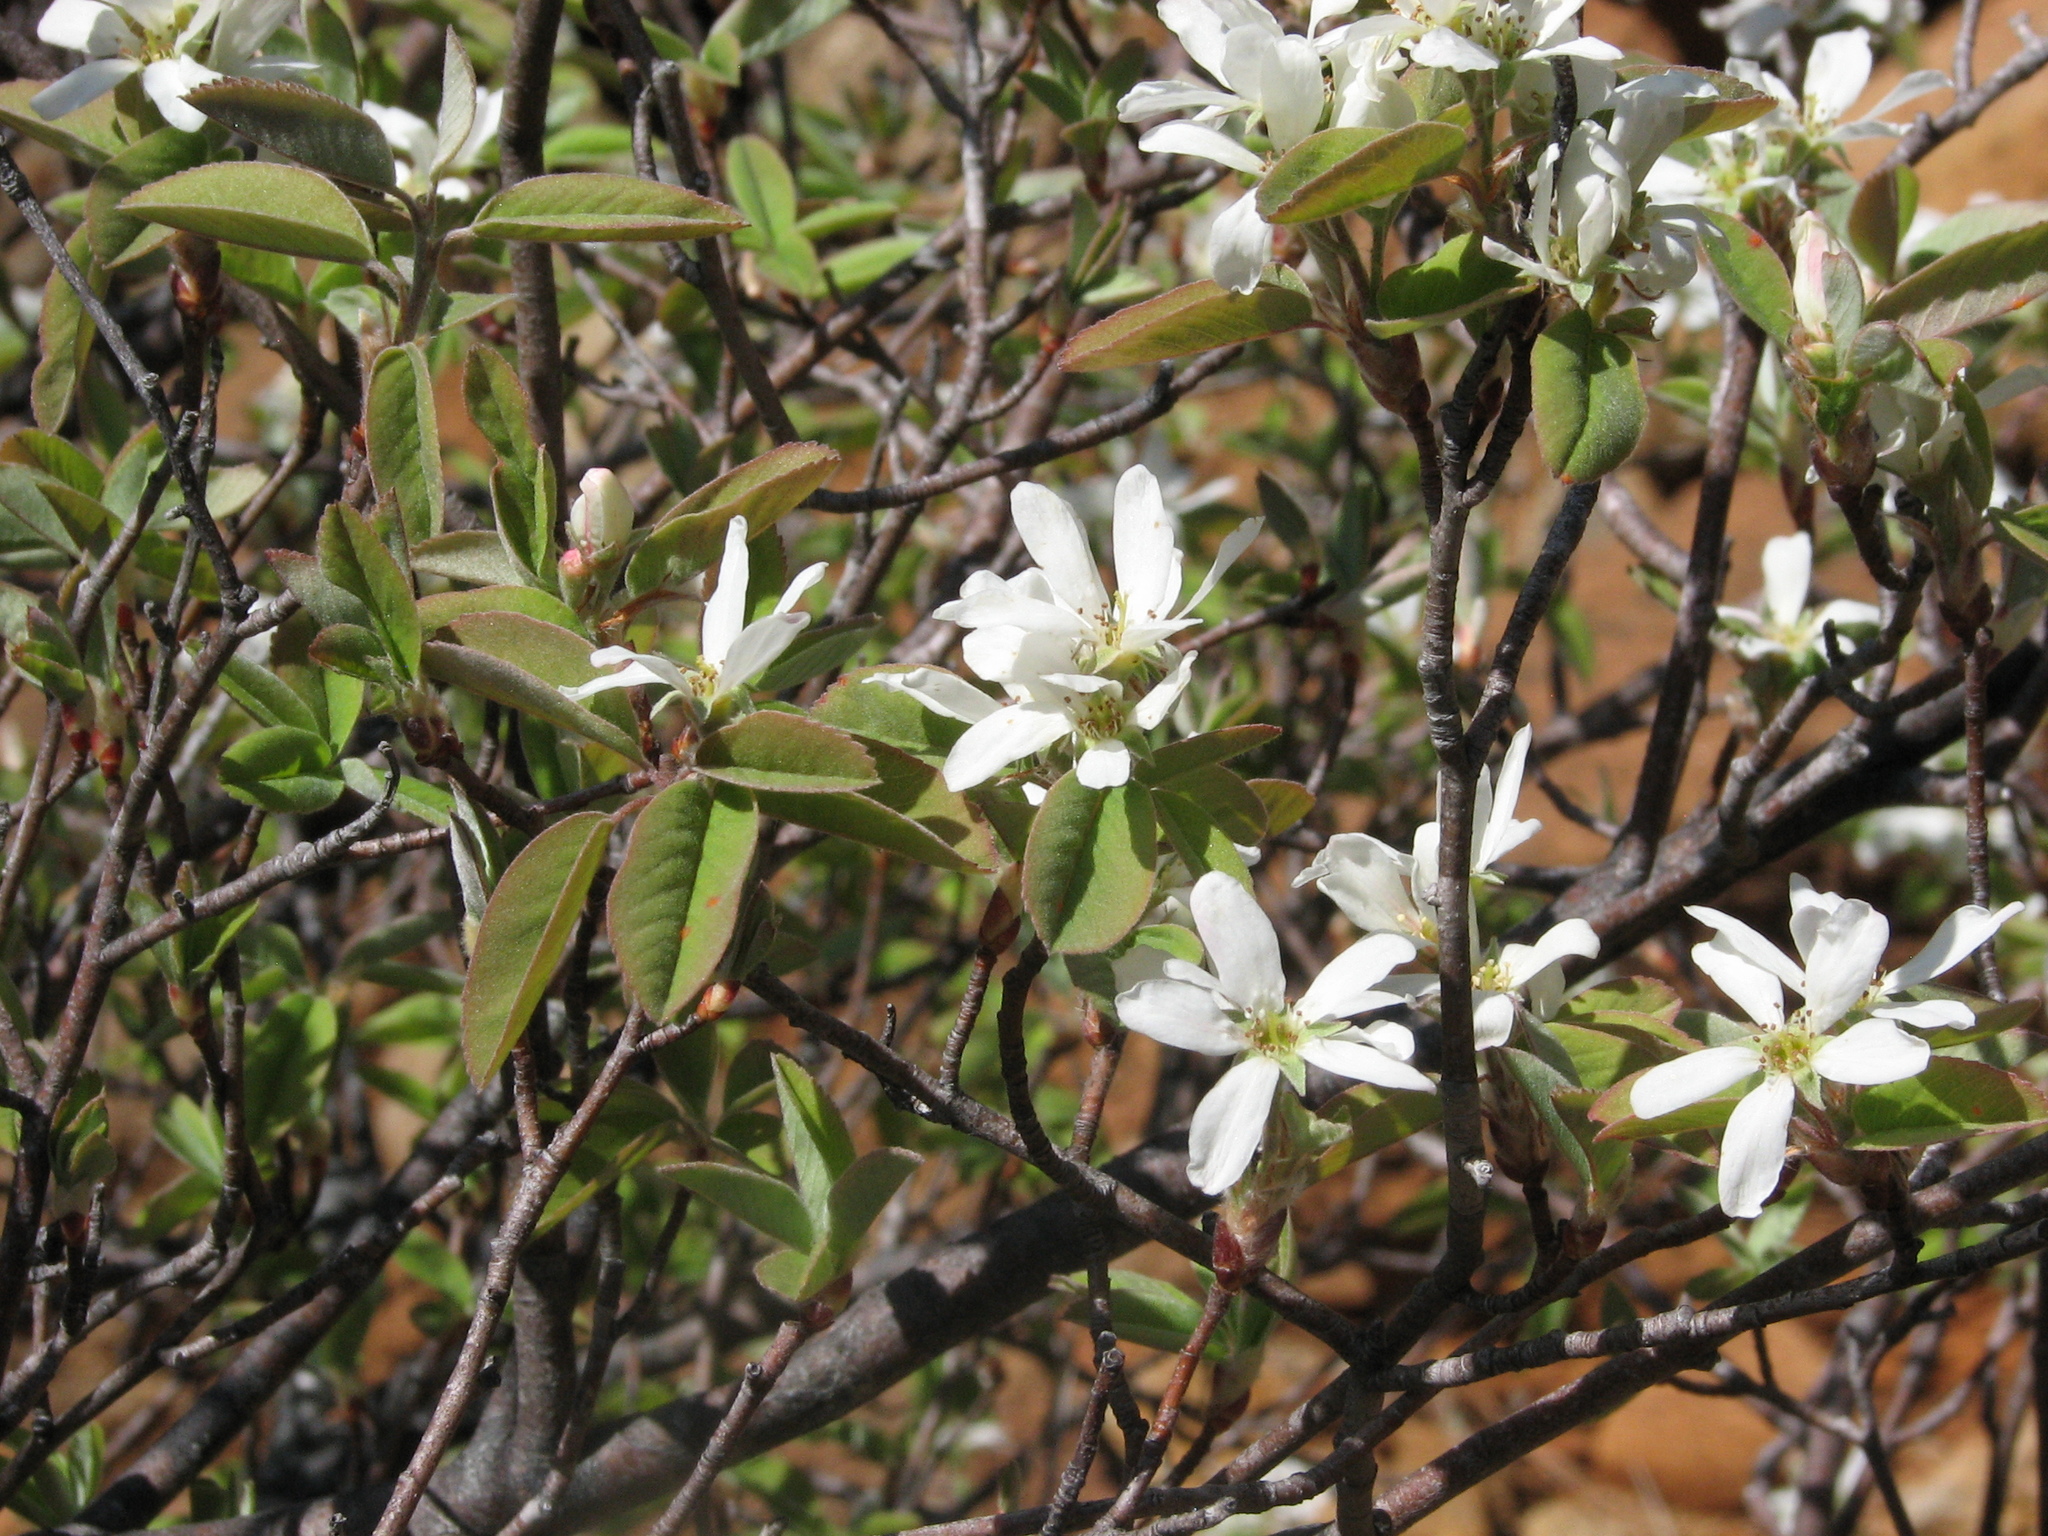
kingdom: Plantae
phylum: Tracheophyta
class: Magnoliopsida
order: Rosales
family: Rosaceae
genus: Amelanchier
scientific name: Amelanchier alnifolia
